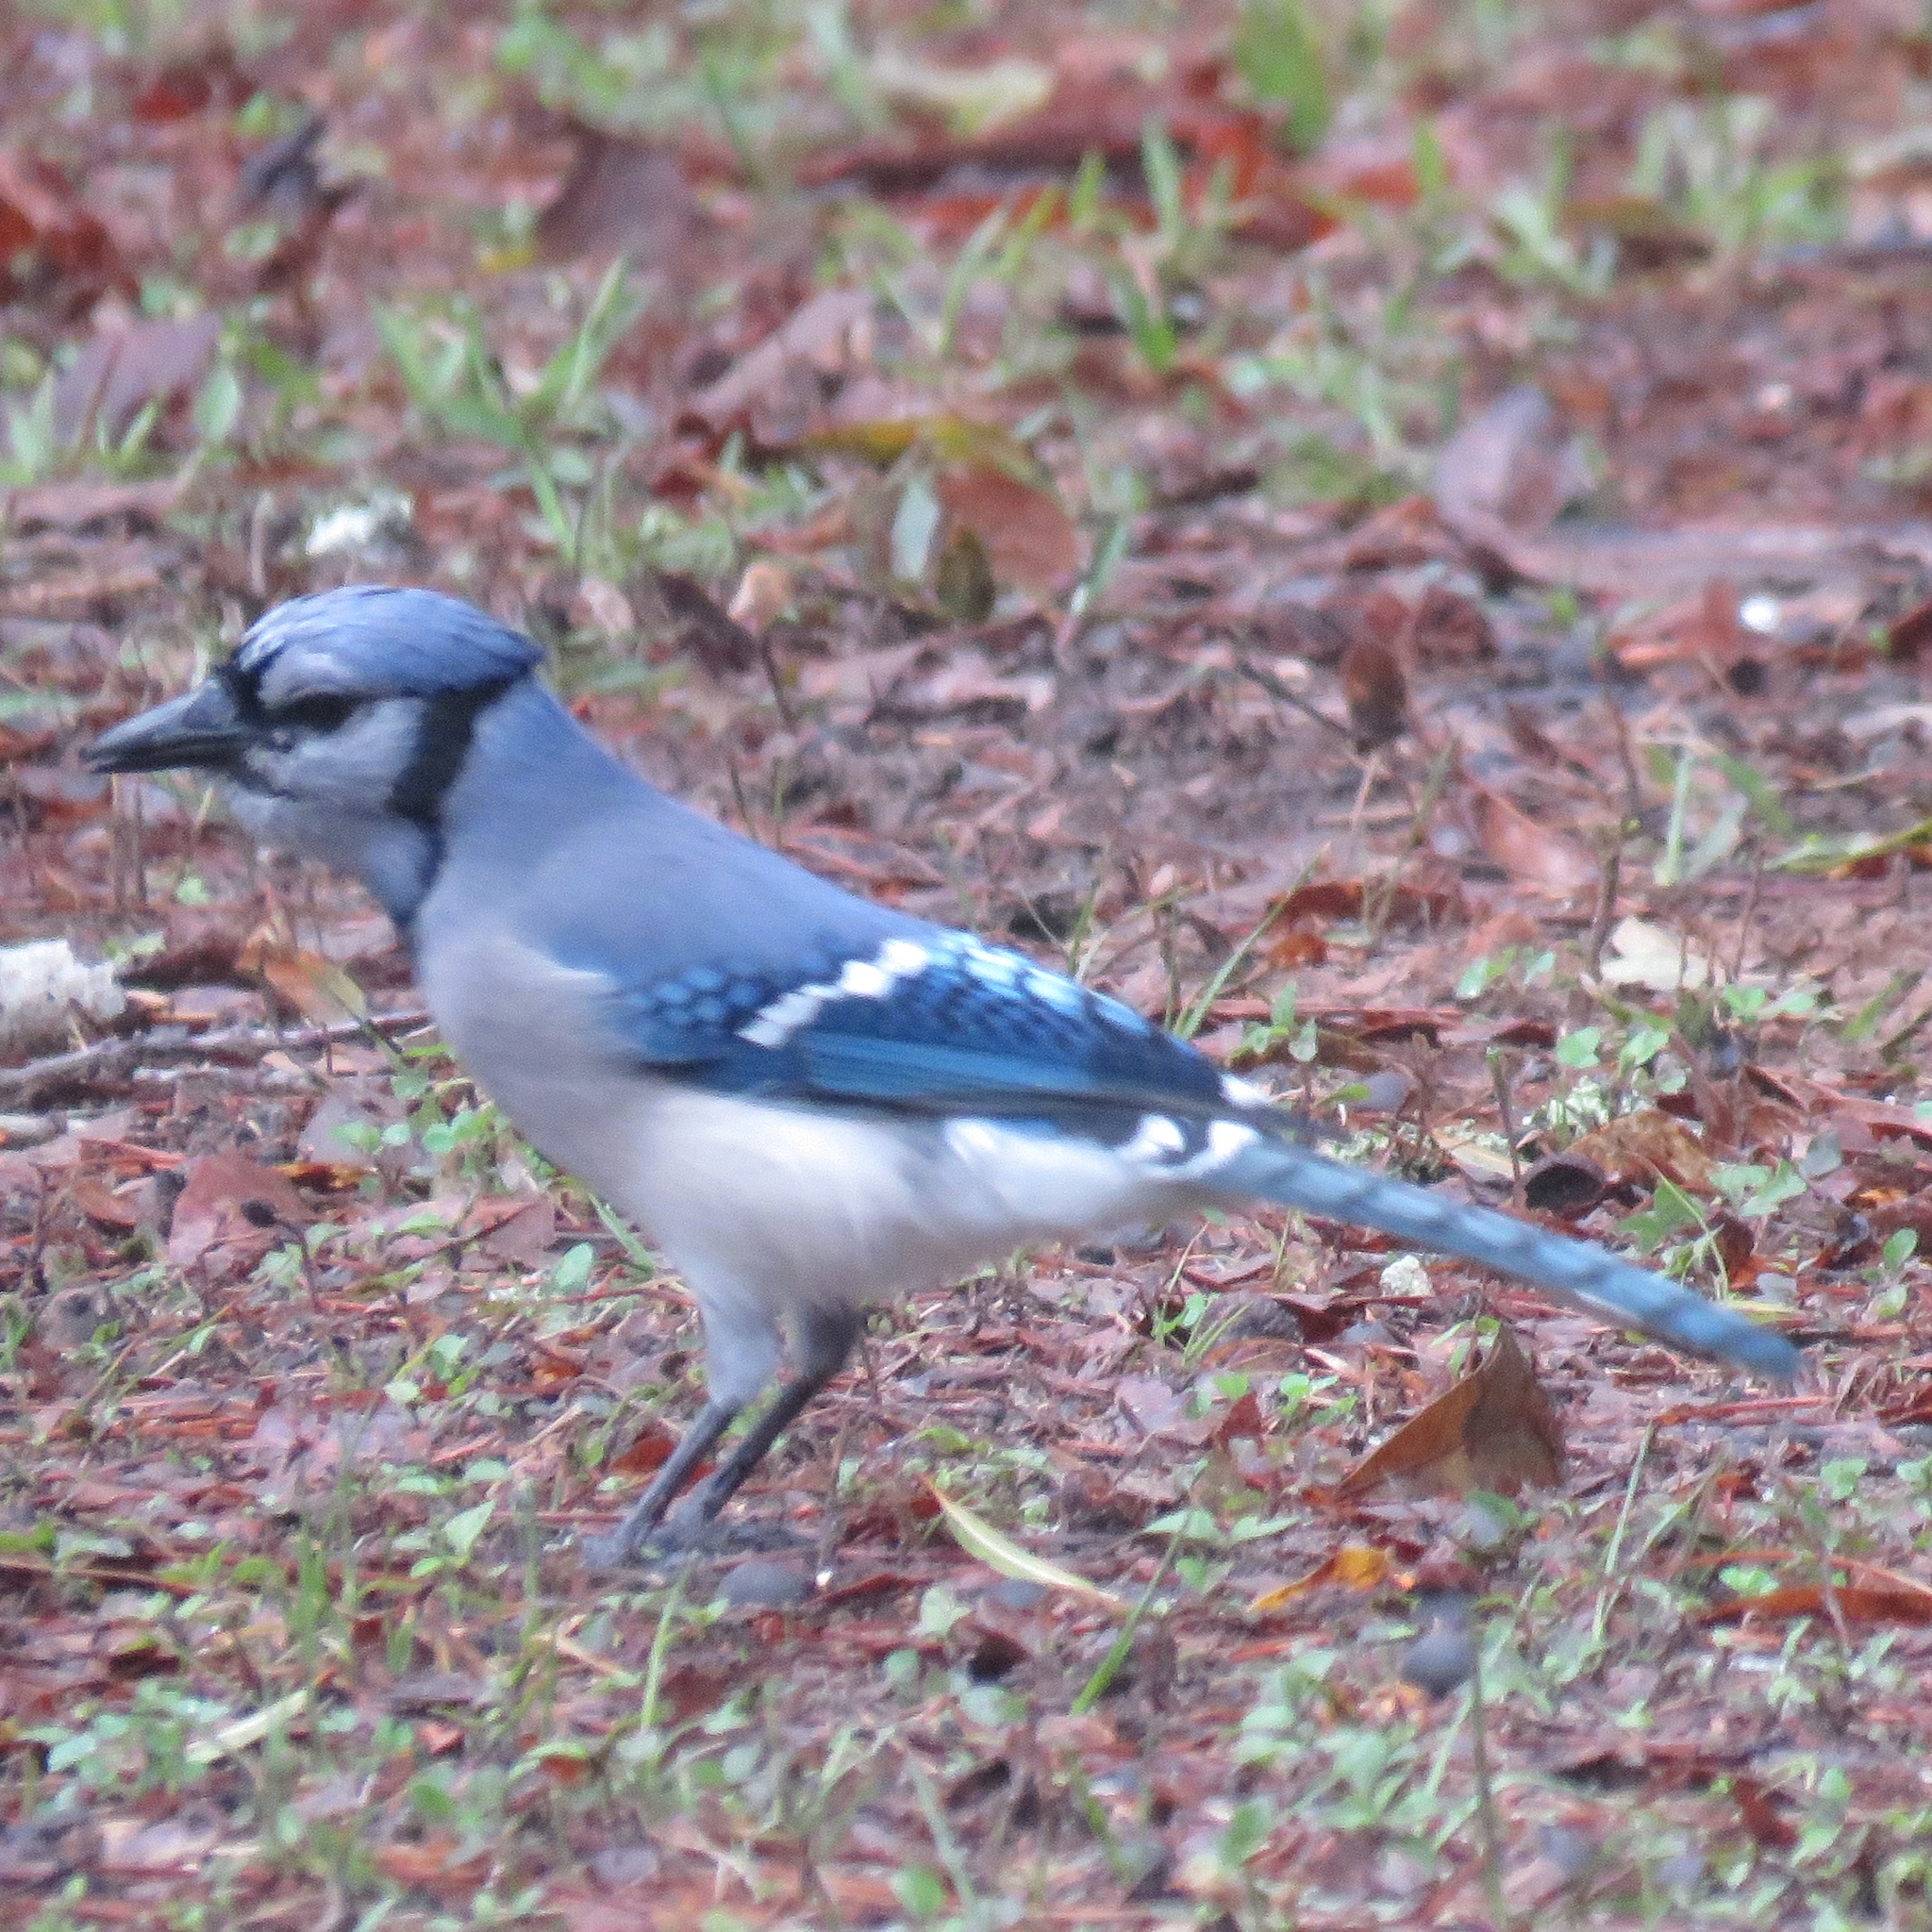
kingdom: Animalia
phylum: Chordata
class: Aves
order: Passeriformes
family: Corvidae
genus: Cyanocitta
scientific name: Cyanocitta cristata
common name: Blue jay
